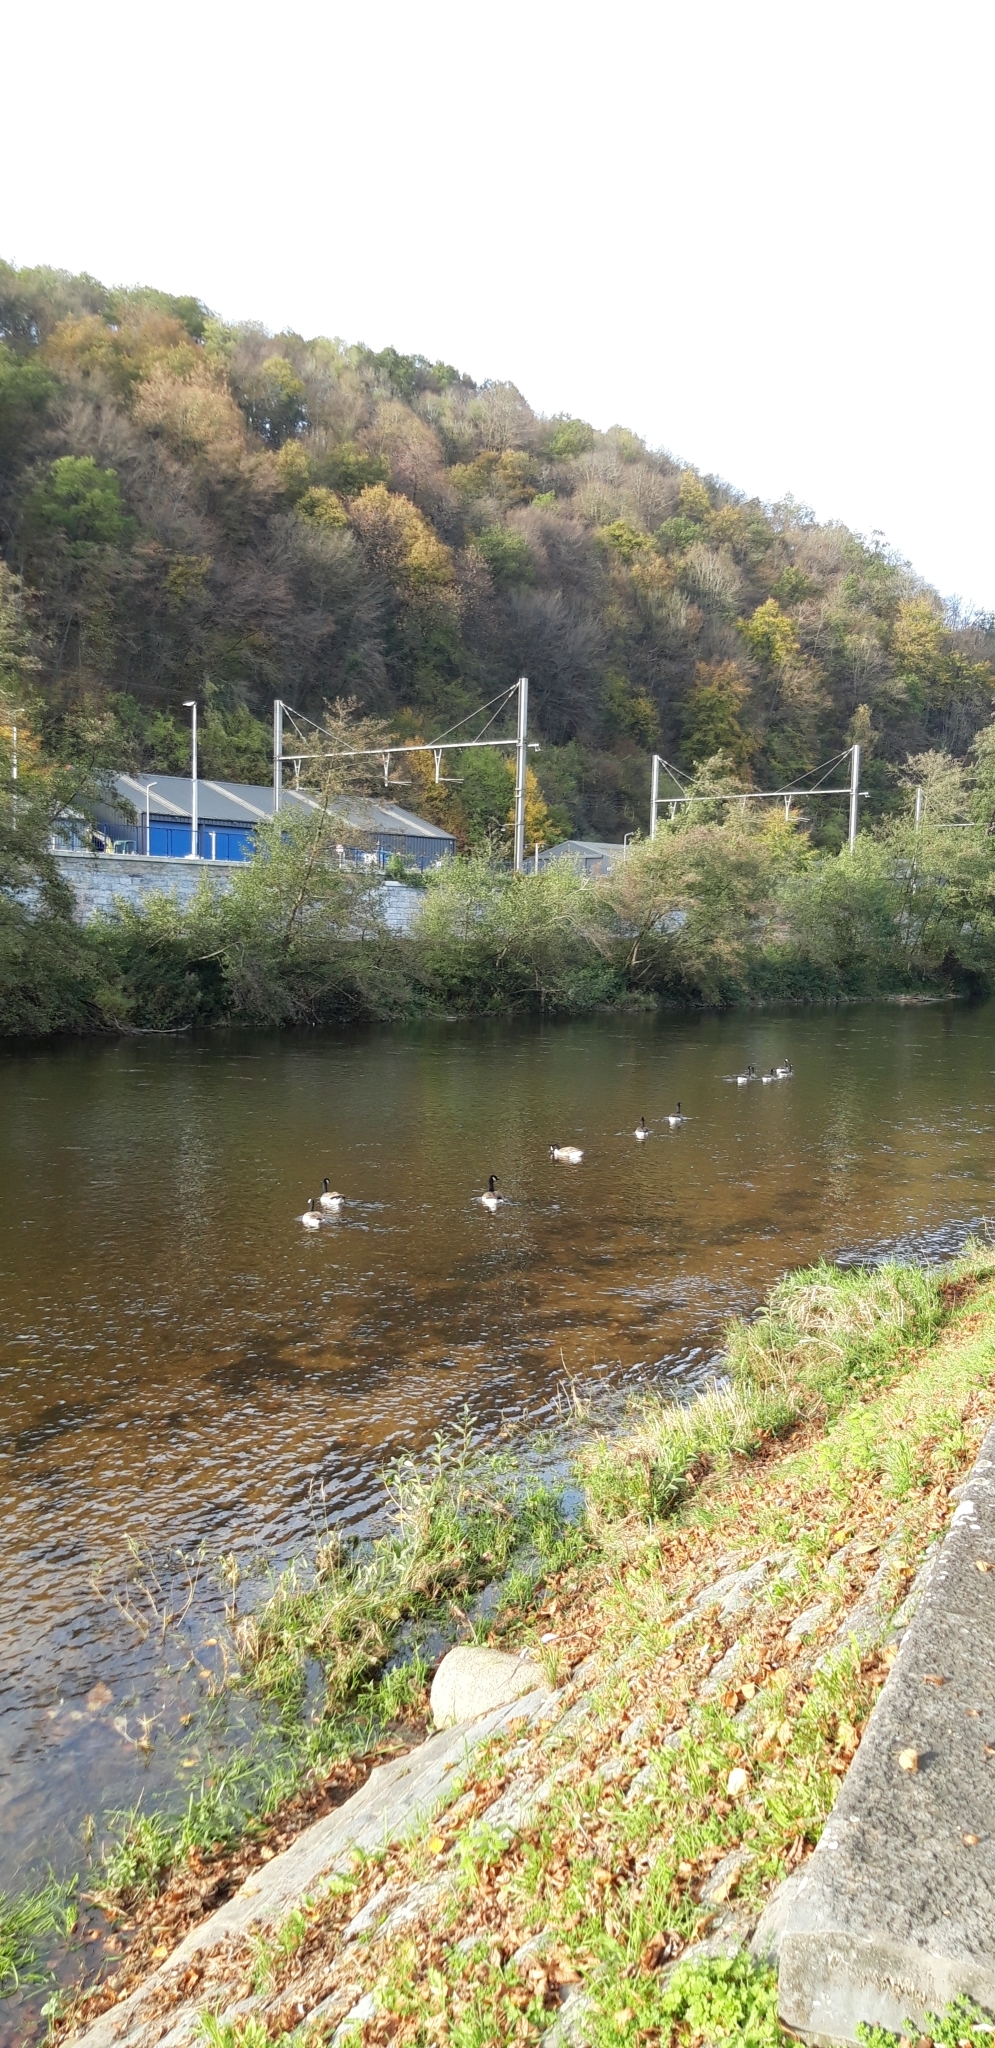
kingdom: Animalia
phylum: Chordata
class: Aves
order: Anseriformes
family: Anatidae
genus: Branta
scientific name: Branta canadensis
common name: Canada goose
